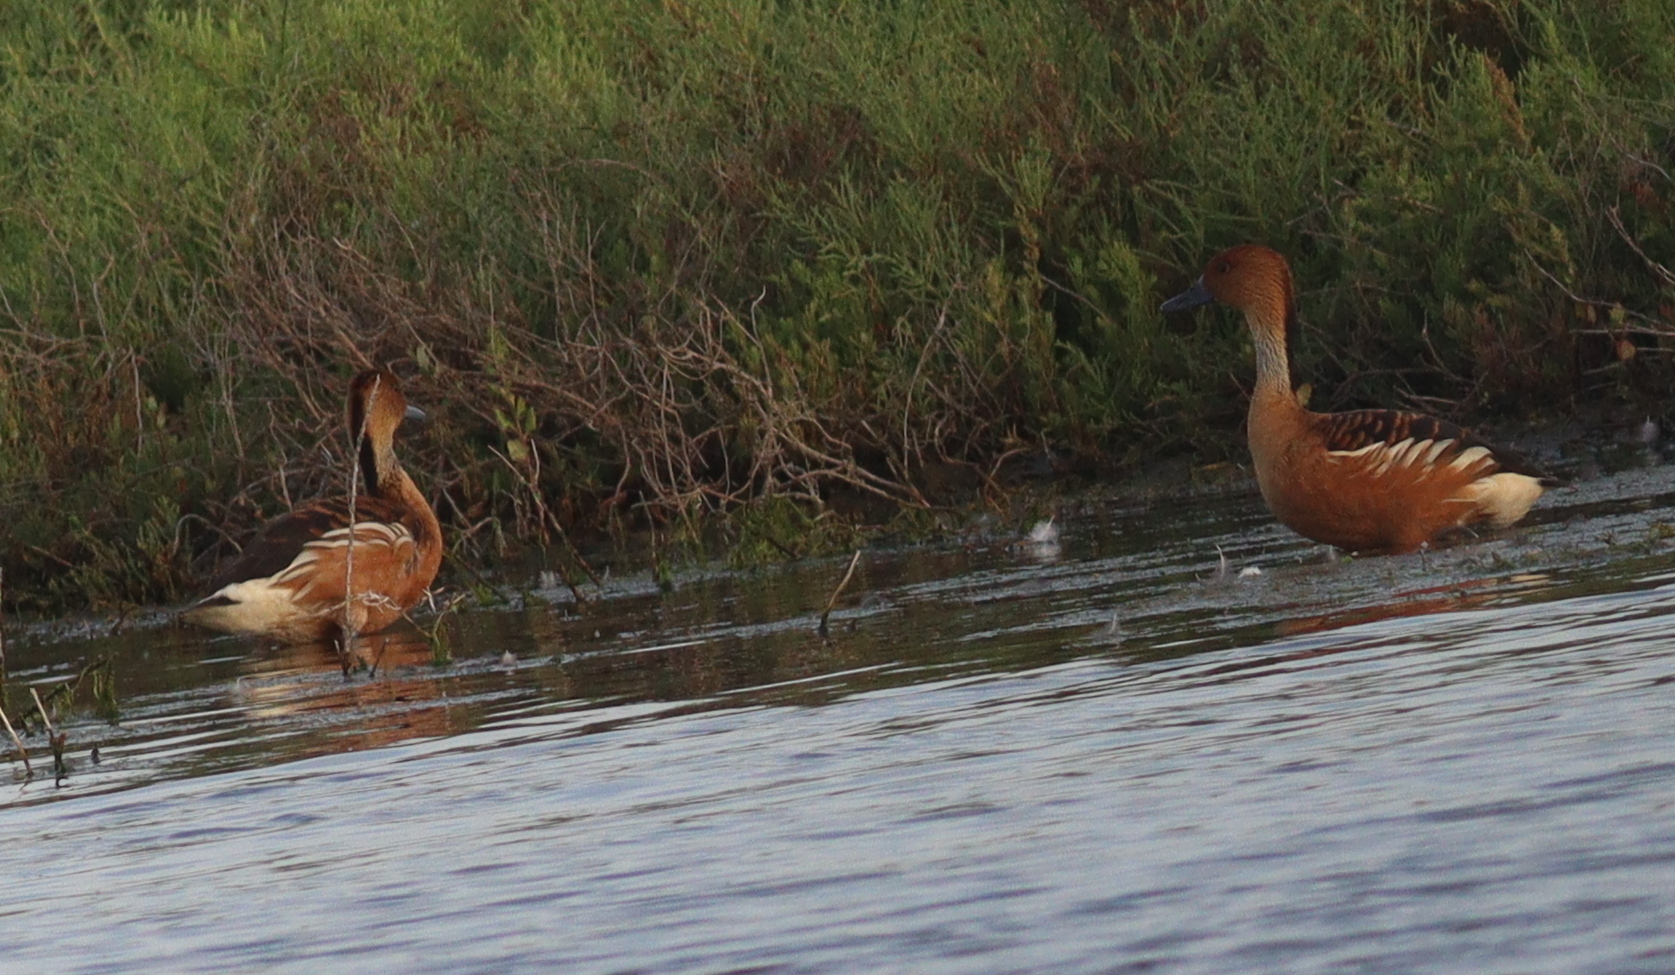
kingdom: Animalia
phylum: Chordata
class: Aves
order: Anseriformes
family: Anatidae
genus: Dendrocygna
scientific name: Dendrocygna bicolor
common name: Fulvous whistling duck
